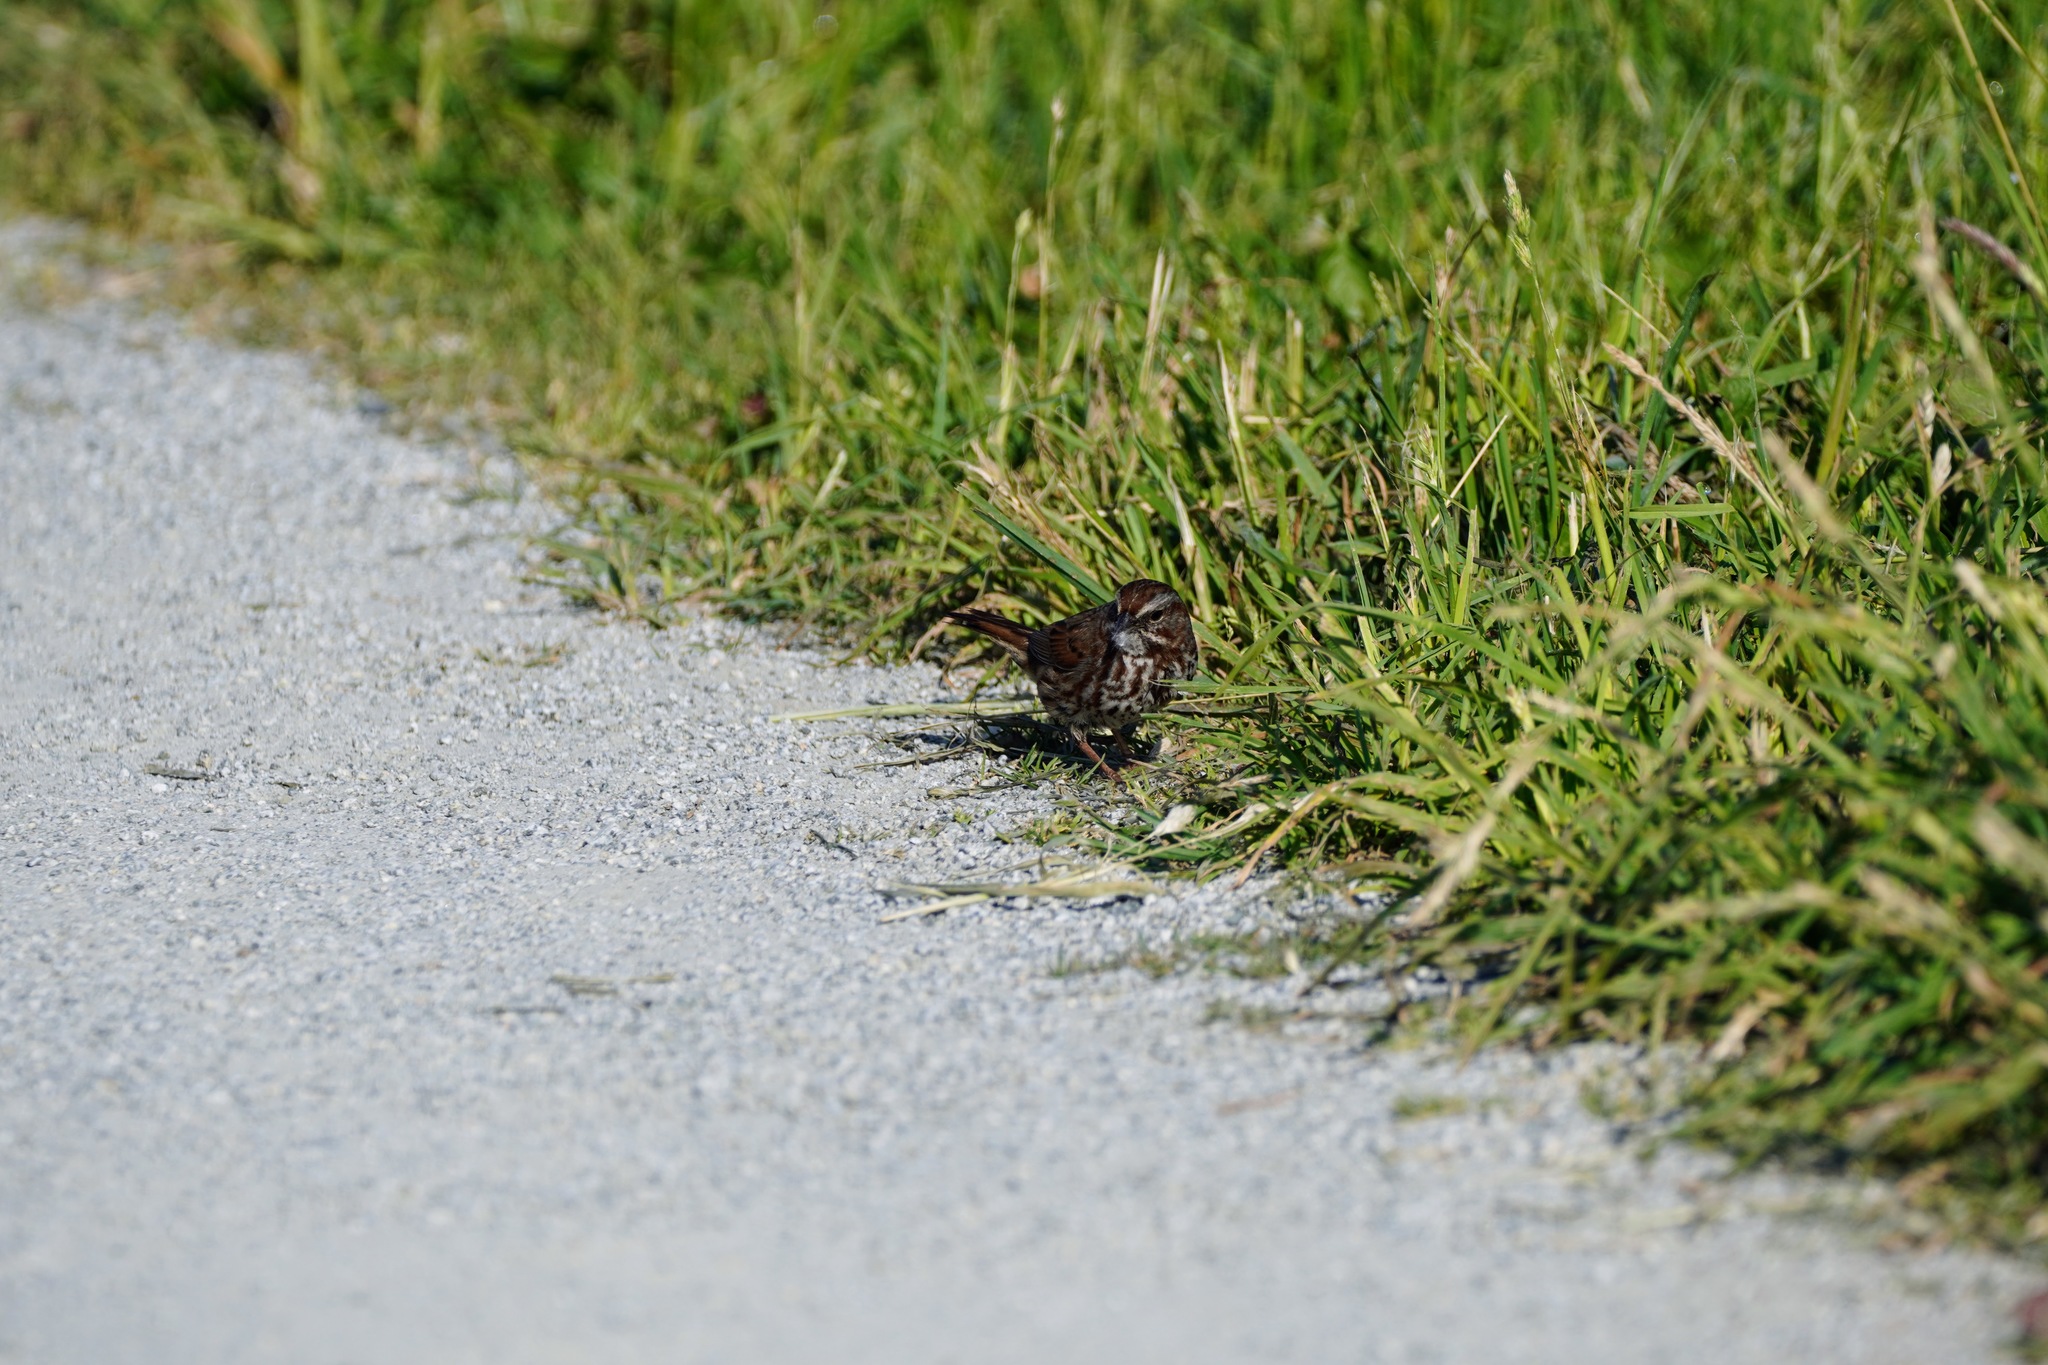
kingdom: Animalia
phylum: Chordata
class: Aves
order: Passeriformes
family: Passerellidae
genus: Melospiza
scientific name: Melospiza melodia
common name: Song sparrow
